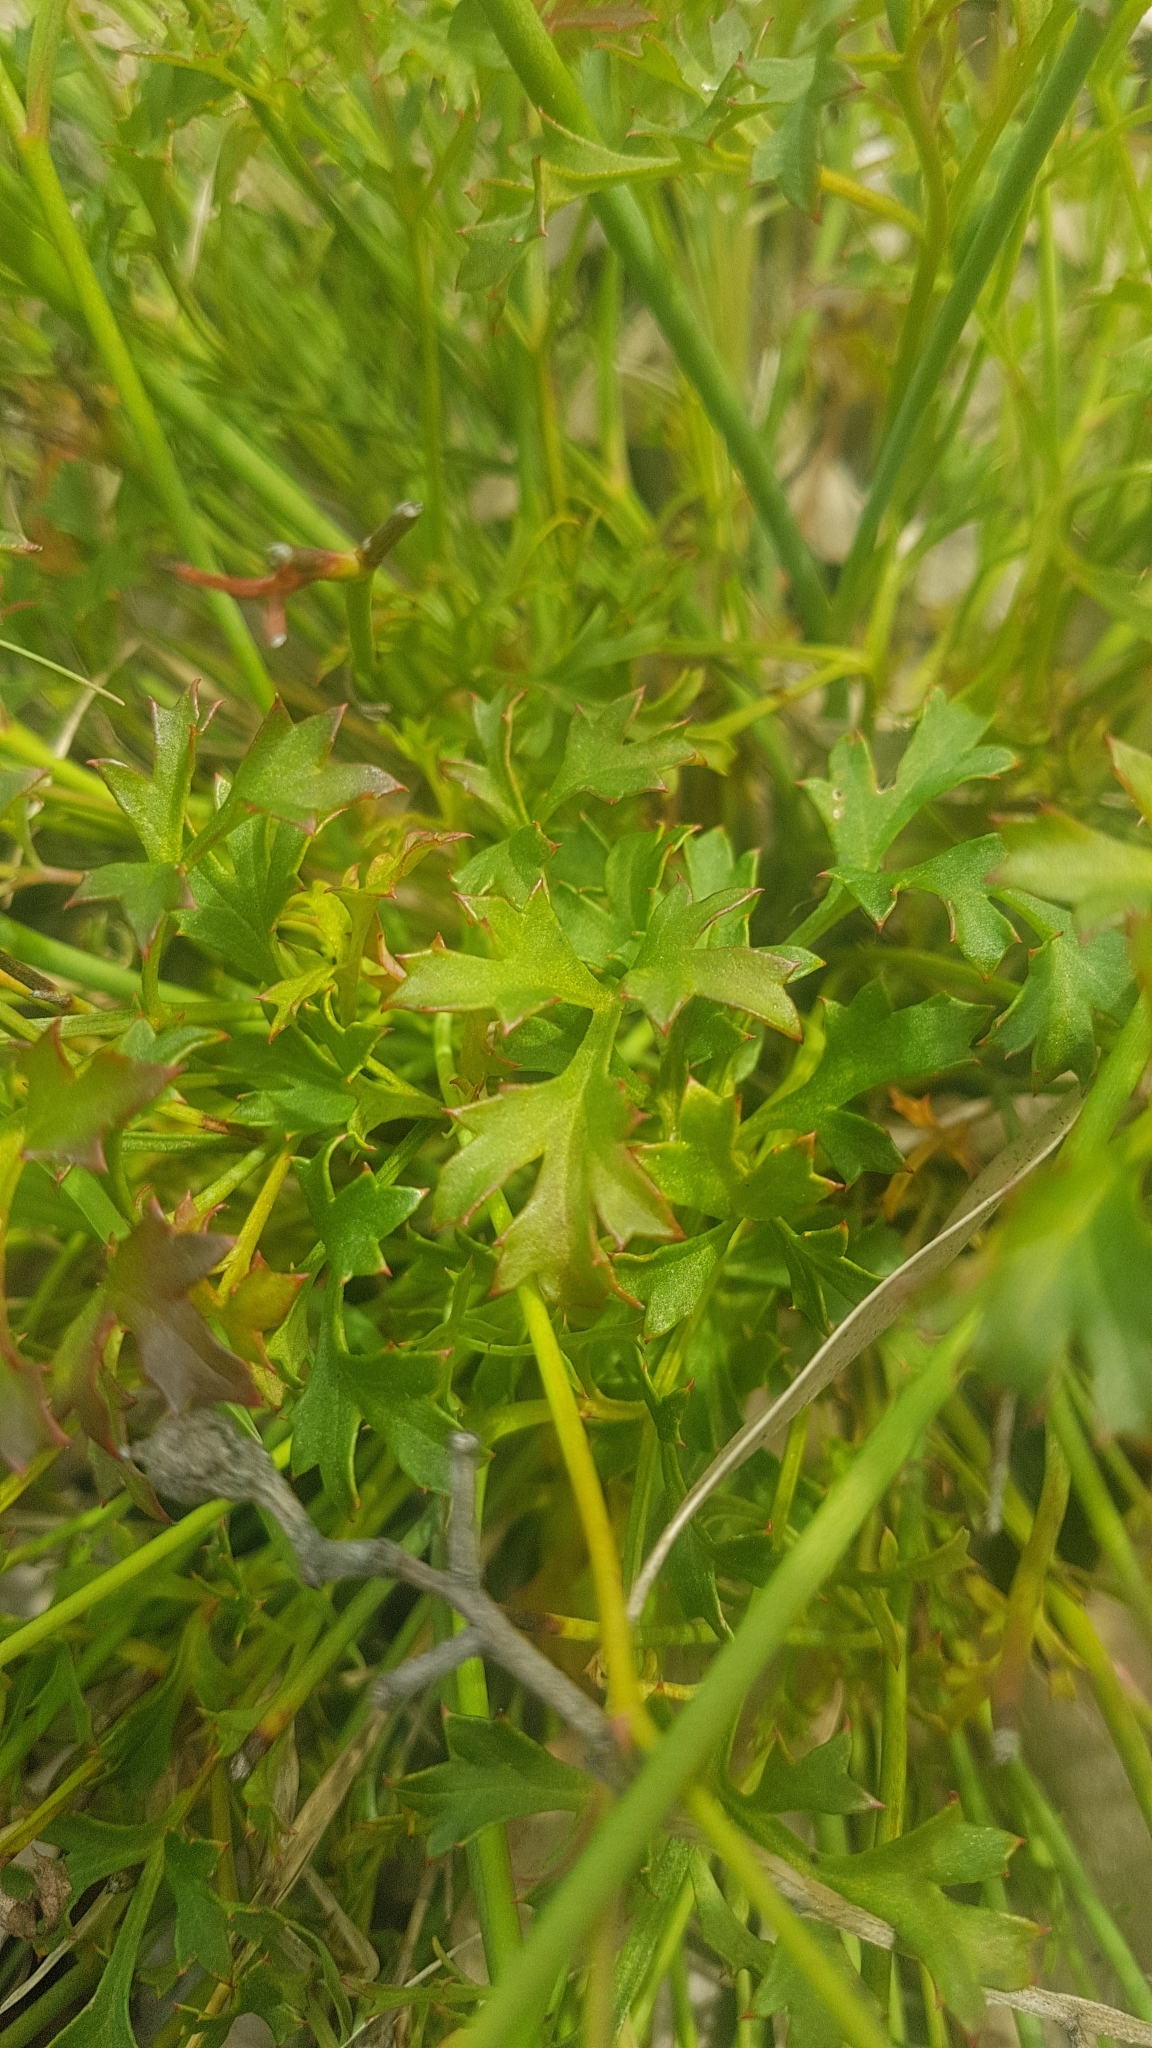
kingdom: Plantae
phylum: Tracheophyta
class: Magnoliopsida
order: Apiales
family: Apiaceae
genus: Xanthosia
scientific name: Xanthosia atkinsoniana
